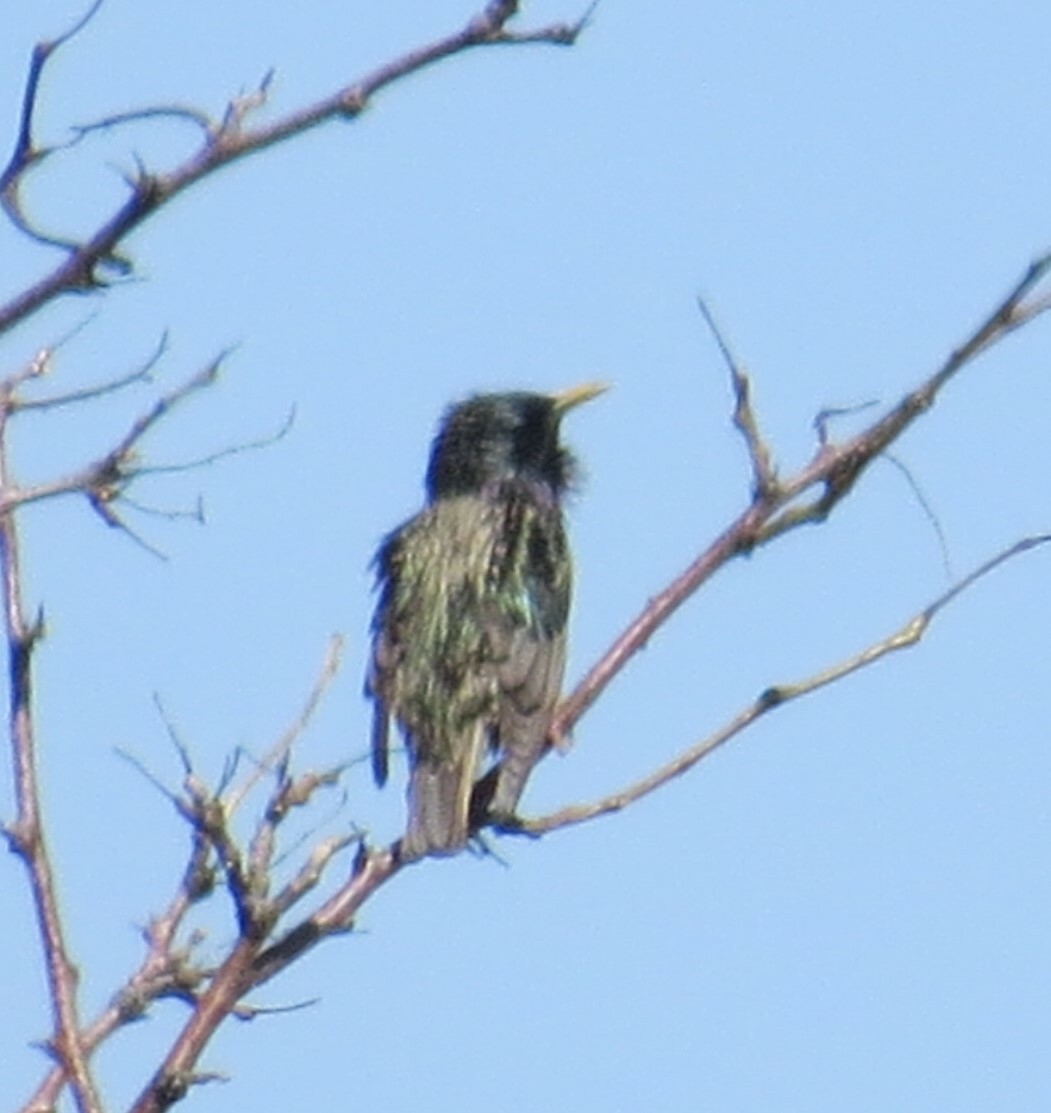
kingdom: Animalia
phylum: Chordata
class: Aves
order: Passeriformes
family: Sturnidae
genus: Sturnus
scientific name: Sturnus vulgaris
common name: Common starling
